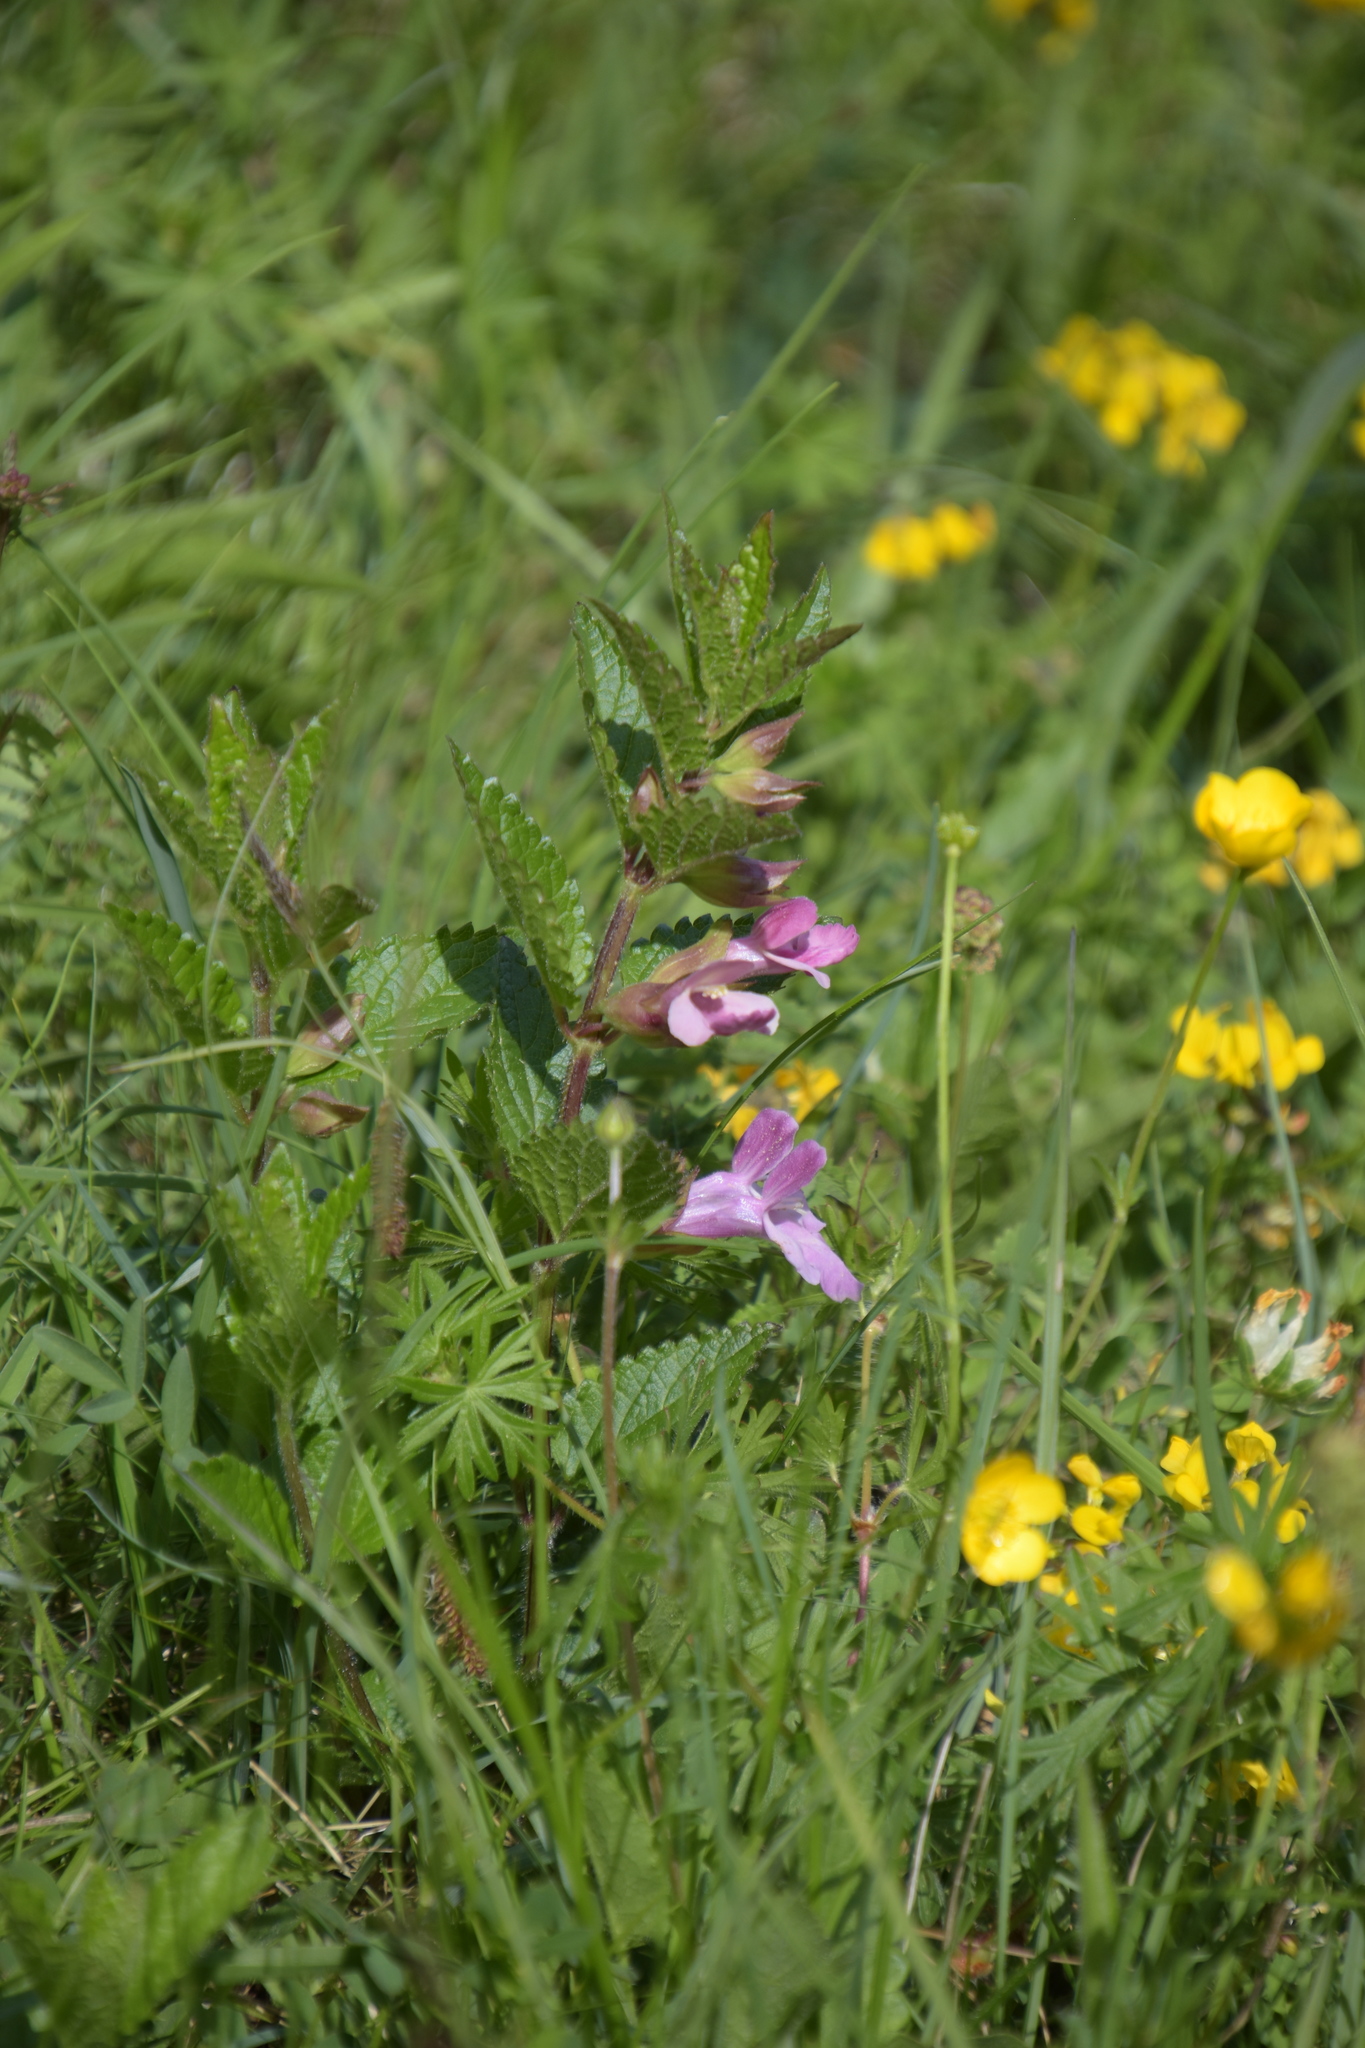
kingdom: Plantae
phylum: Tracheophyta
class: Magnoliopsida
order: Lamiales
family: Lamiaceae
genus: Melittis
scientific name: Melittis melissophyllum
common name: Bastard balm
